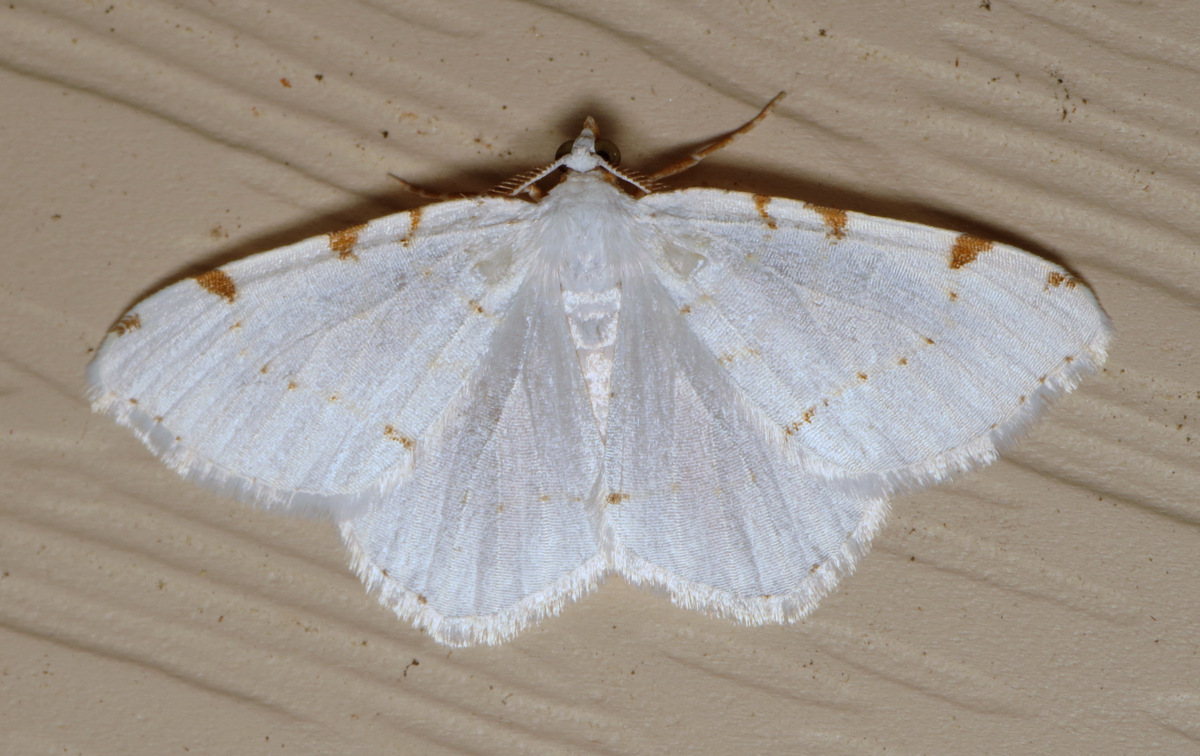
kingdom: Animalia
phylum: Arthropoda
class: Insecta
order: Lepidoptera
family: Geometridae
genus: Macaria
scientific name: Macaria pustularia
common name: Lesser maple spanworm moth
